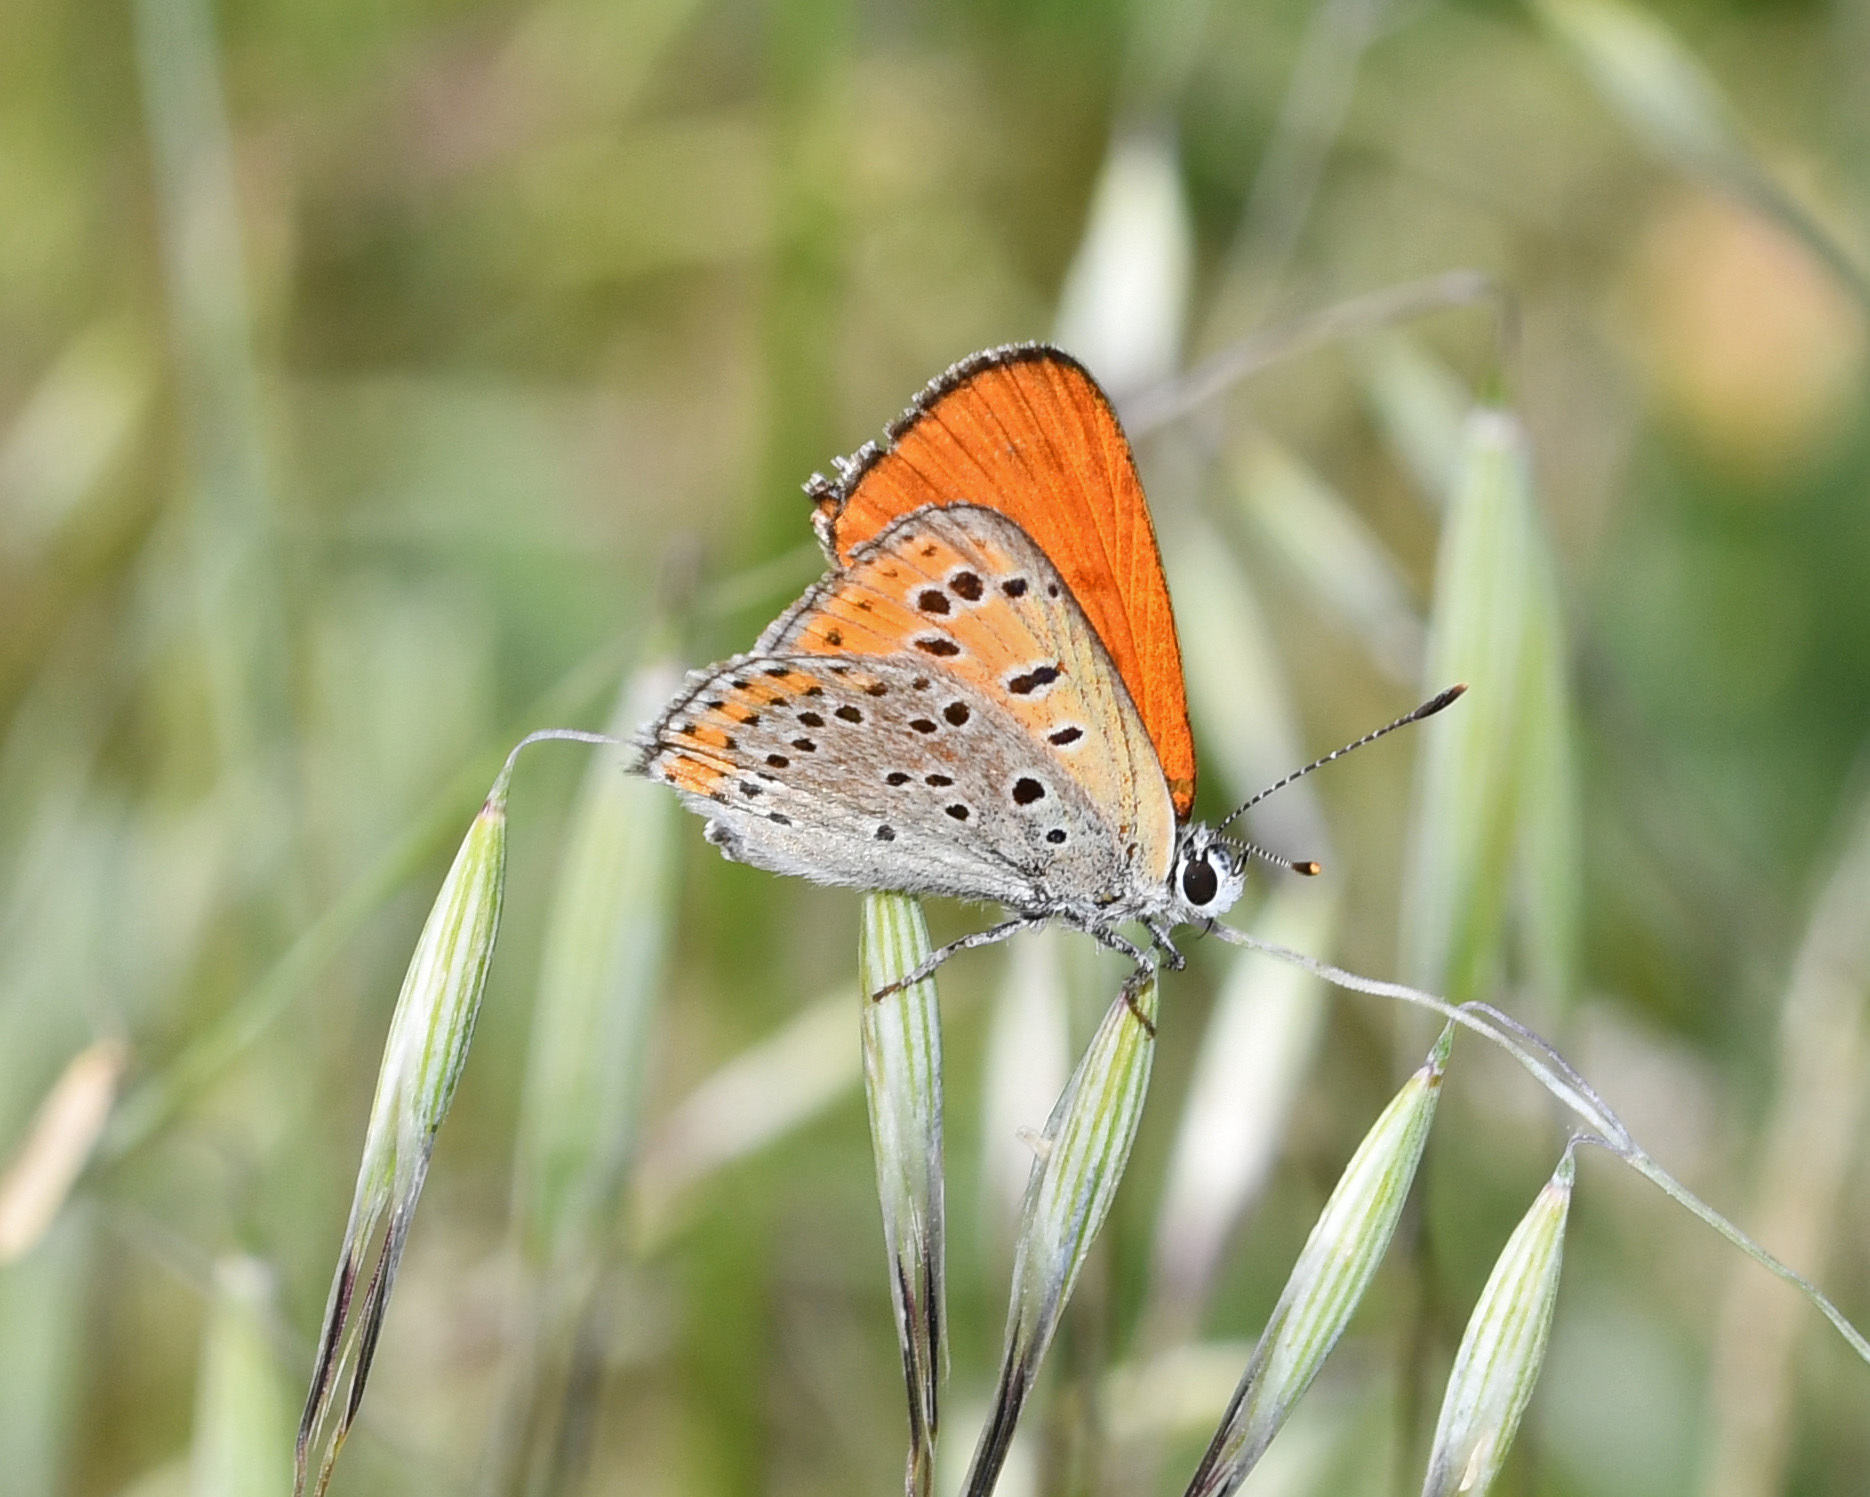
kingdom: Animalia
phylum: Arthropoda
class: Insecta
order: Lepidoptera
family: Lycaenidae
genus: Thersamonia
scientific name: Thersamonia thersamon
